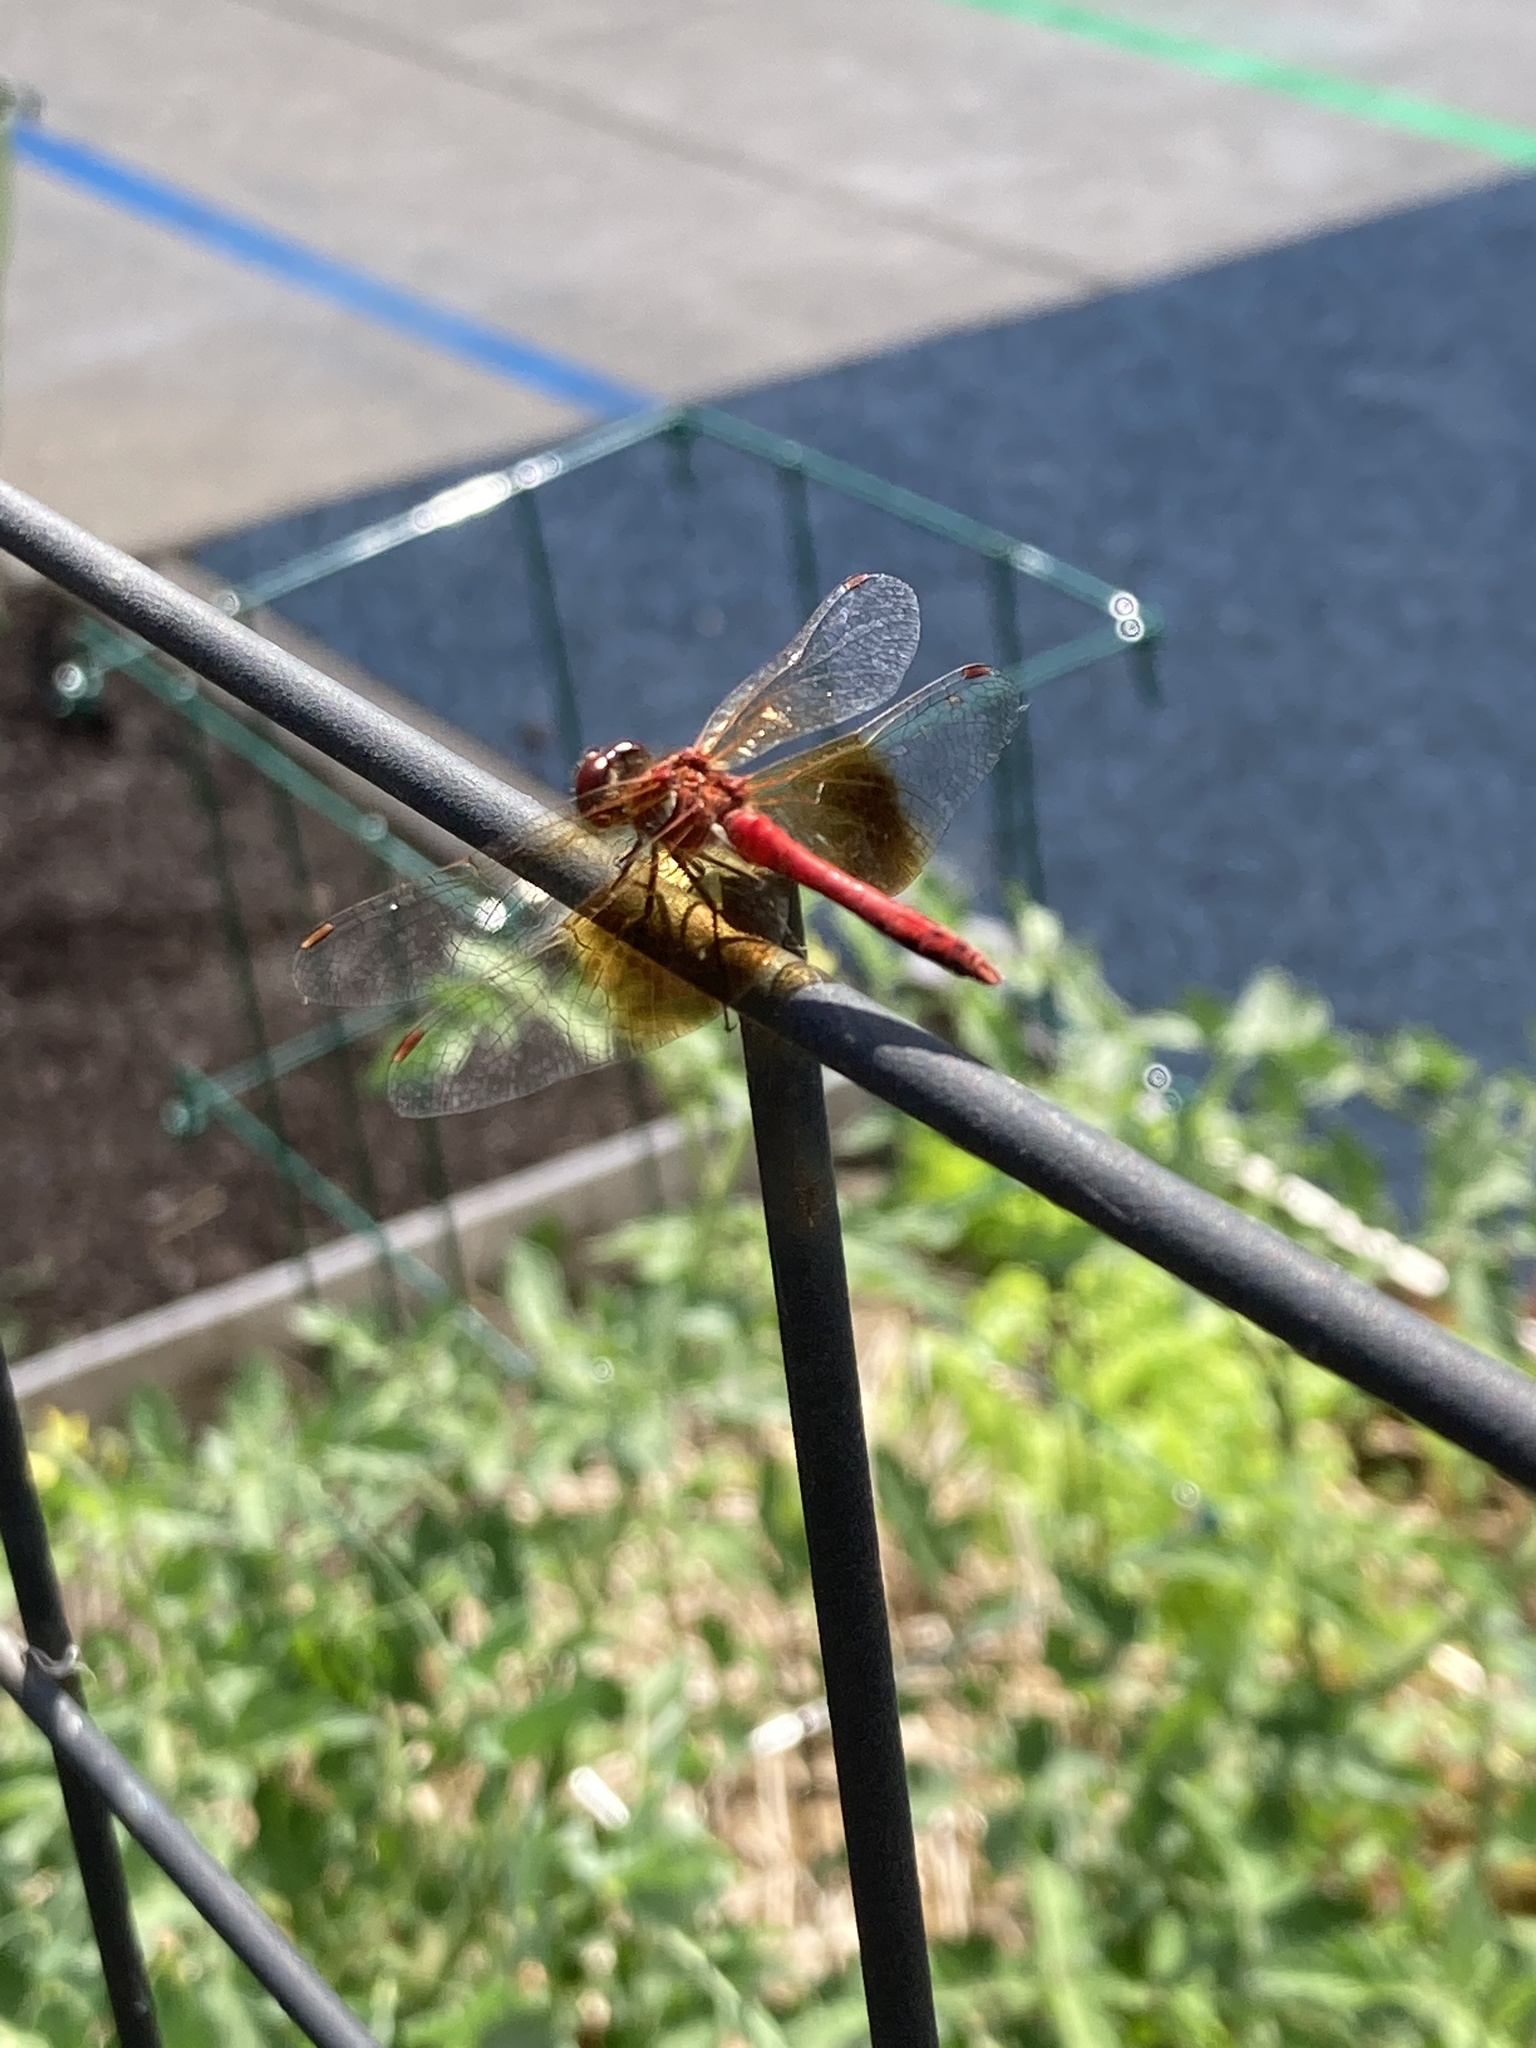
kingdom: Animalia
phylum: Arthropoda
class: Insecta
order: Odonata
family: Libellulidae
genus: Sympetrum
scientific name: Sympetrum semicinctum
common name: Band-winged meadowhawk
